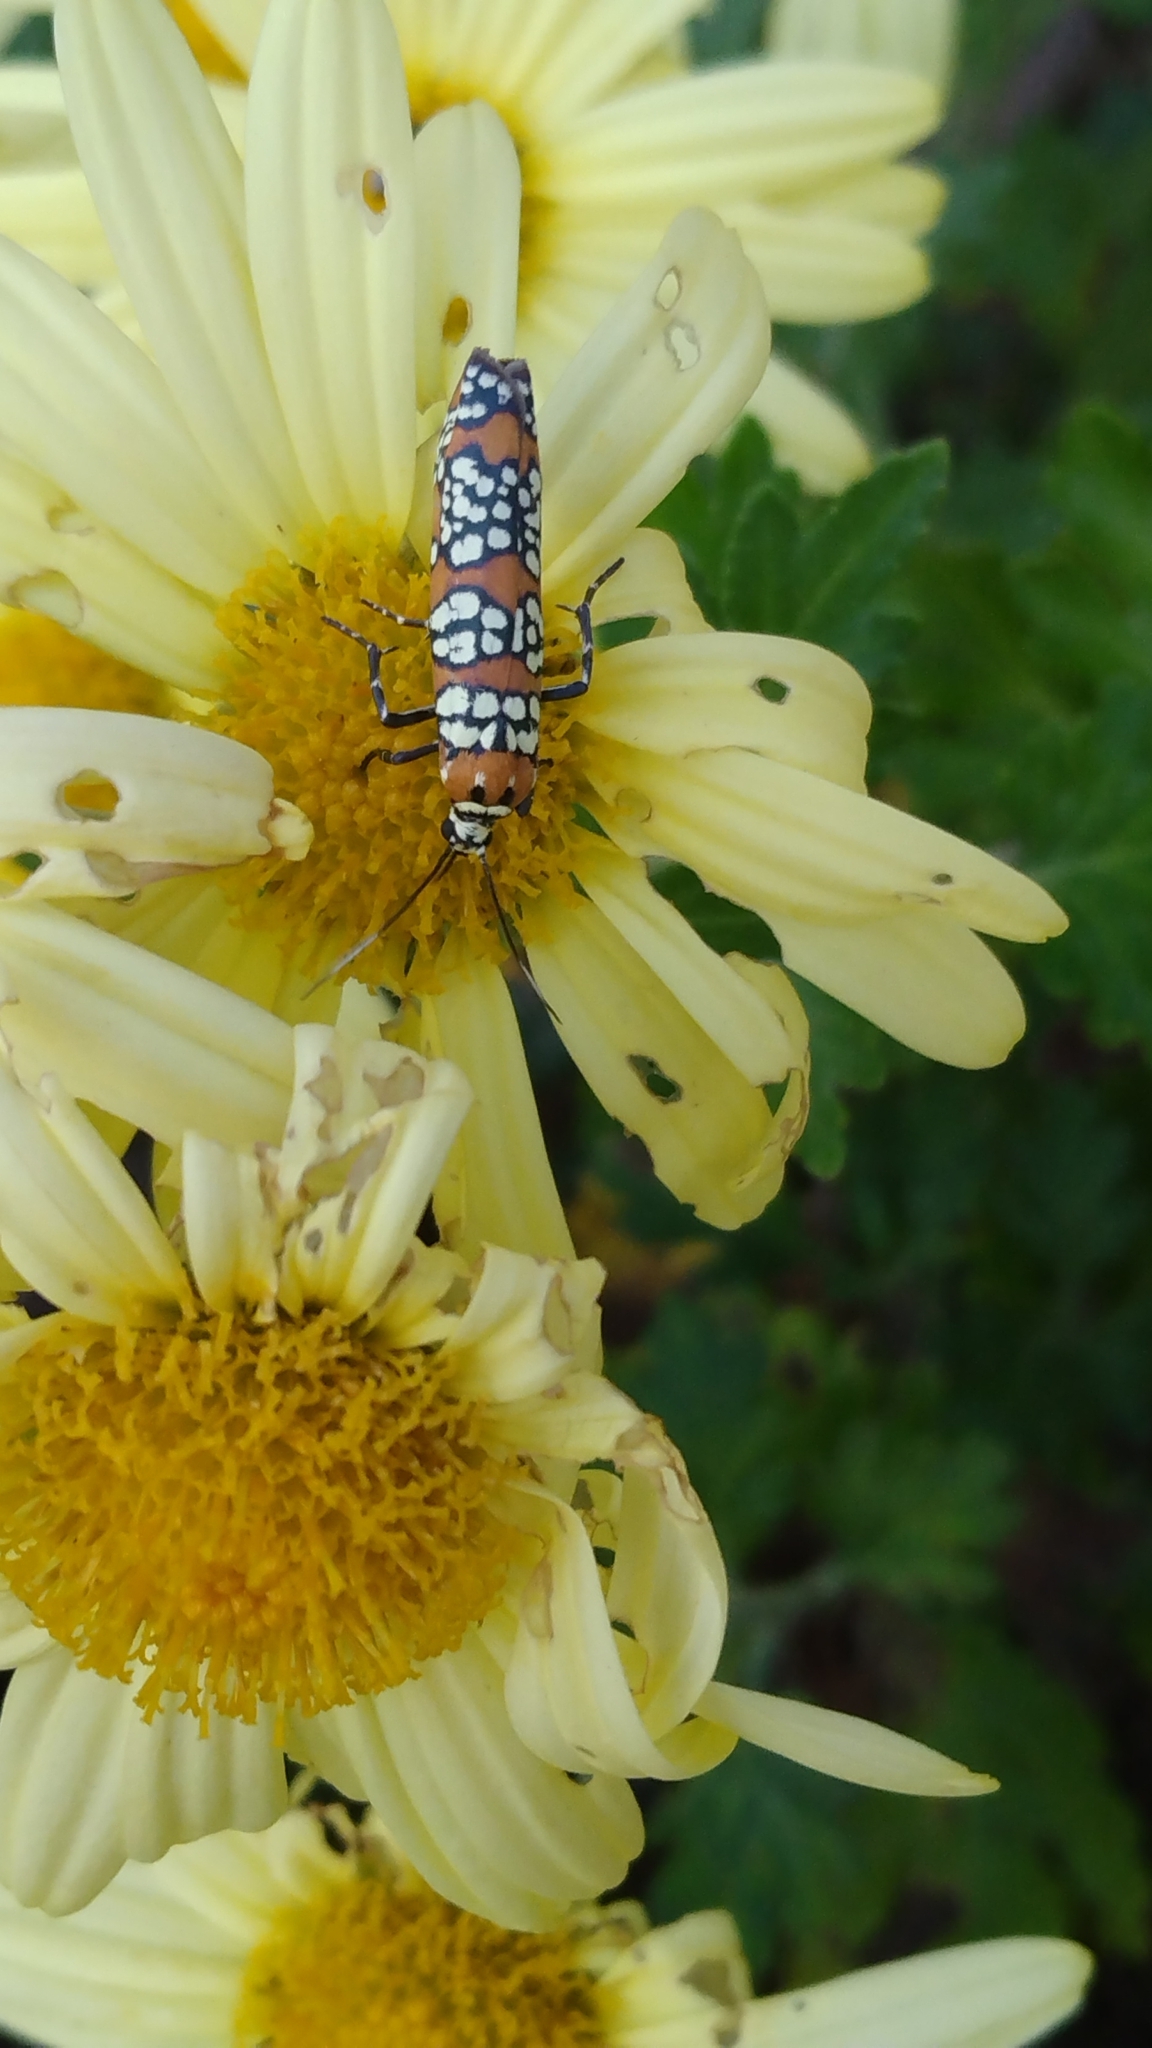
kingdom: Animalia
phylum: Arthropoda
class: Insecta
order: Lepidoptera
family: Attevidae
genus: Atteva
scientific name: Atteva punctella
